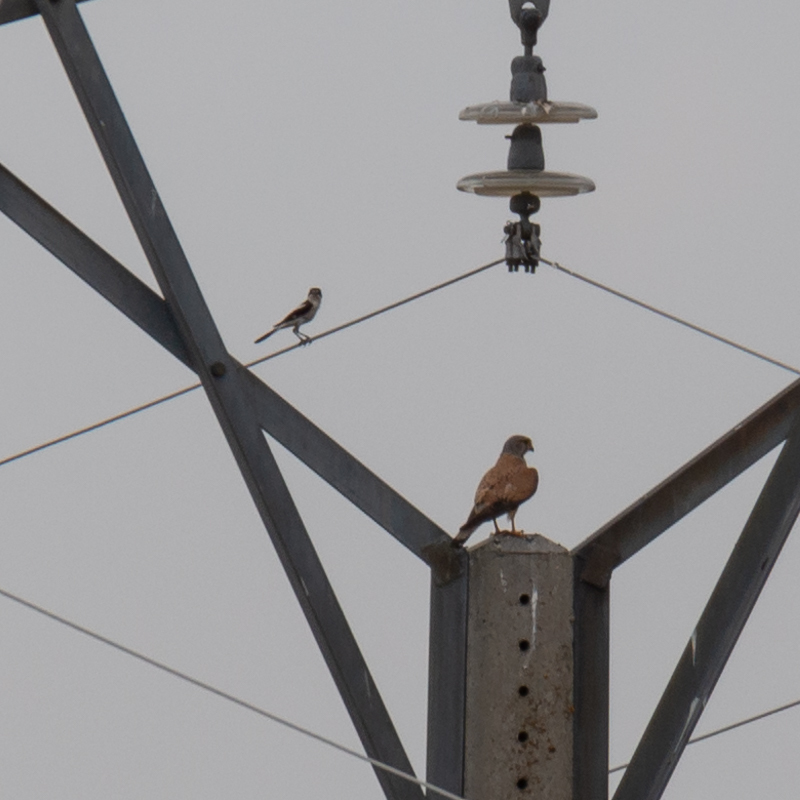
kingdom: Animalia
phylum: Chordata
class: Aves
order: Falconiformes
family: Falconidae
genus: Falco
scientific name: Falco tinnunculus
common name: Common kestrel
